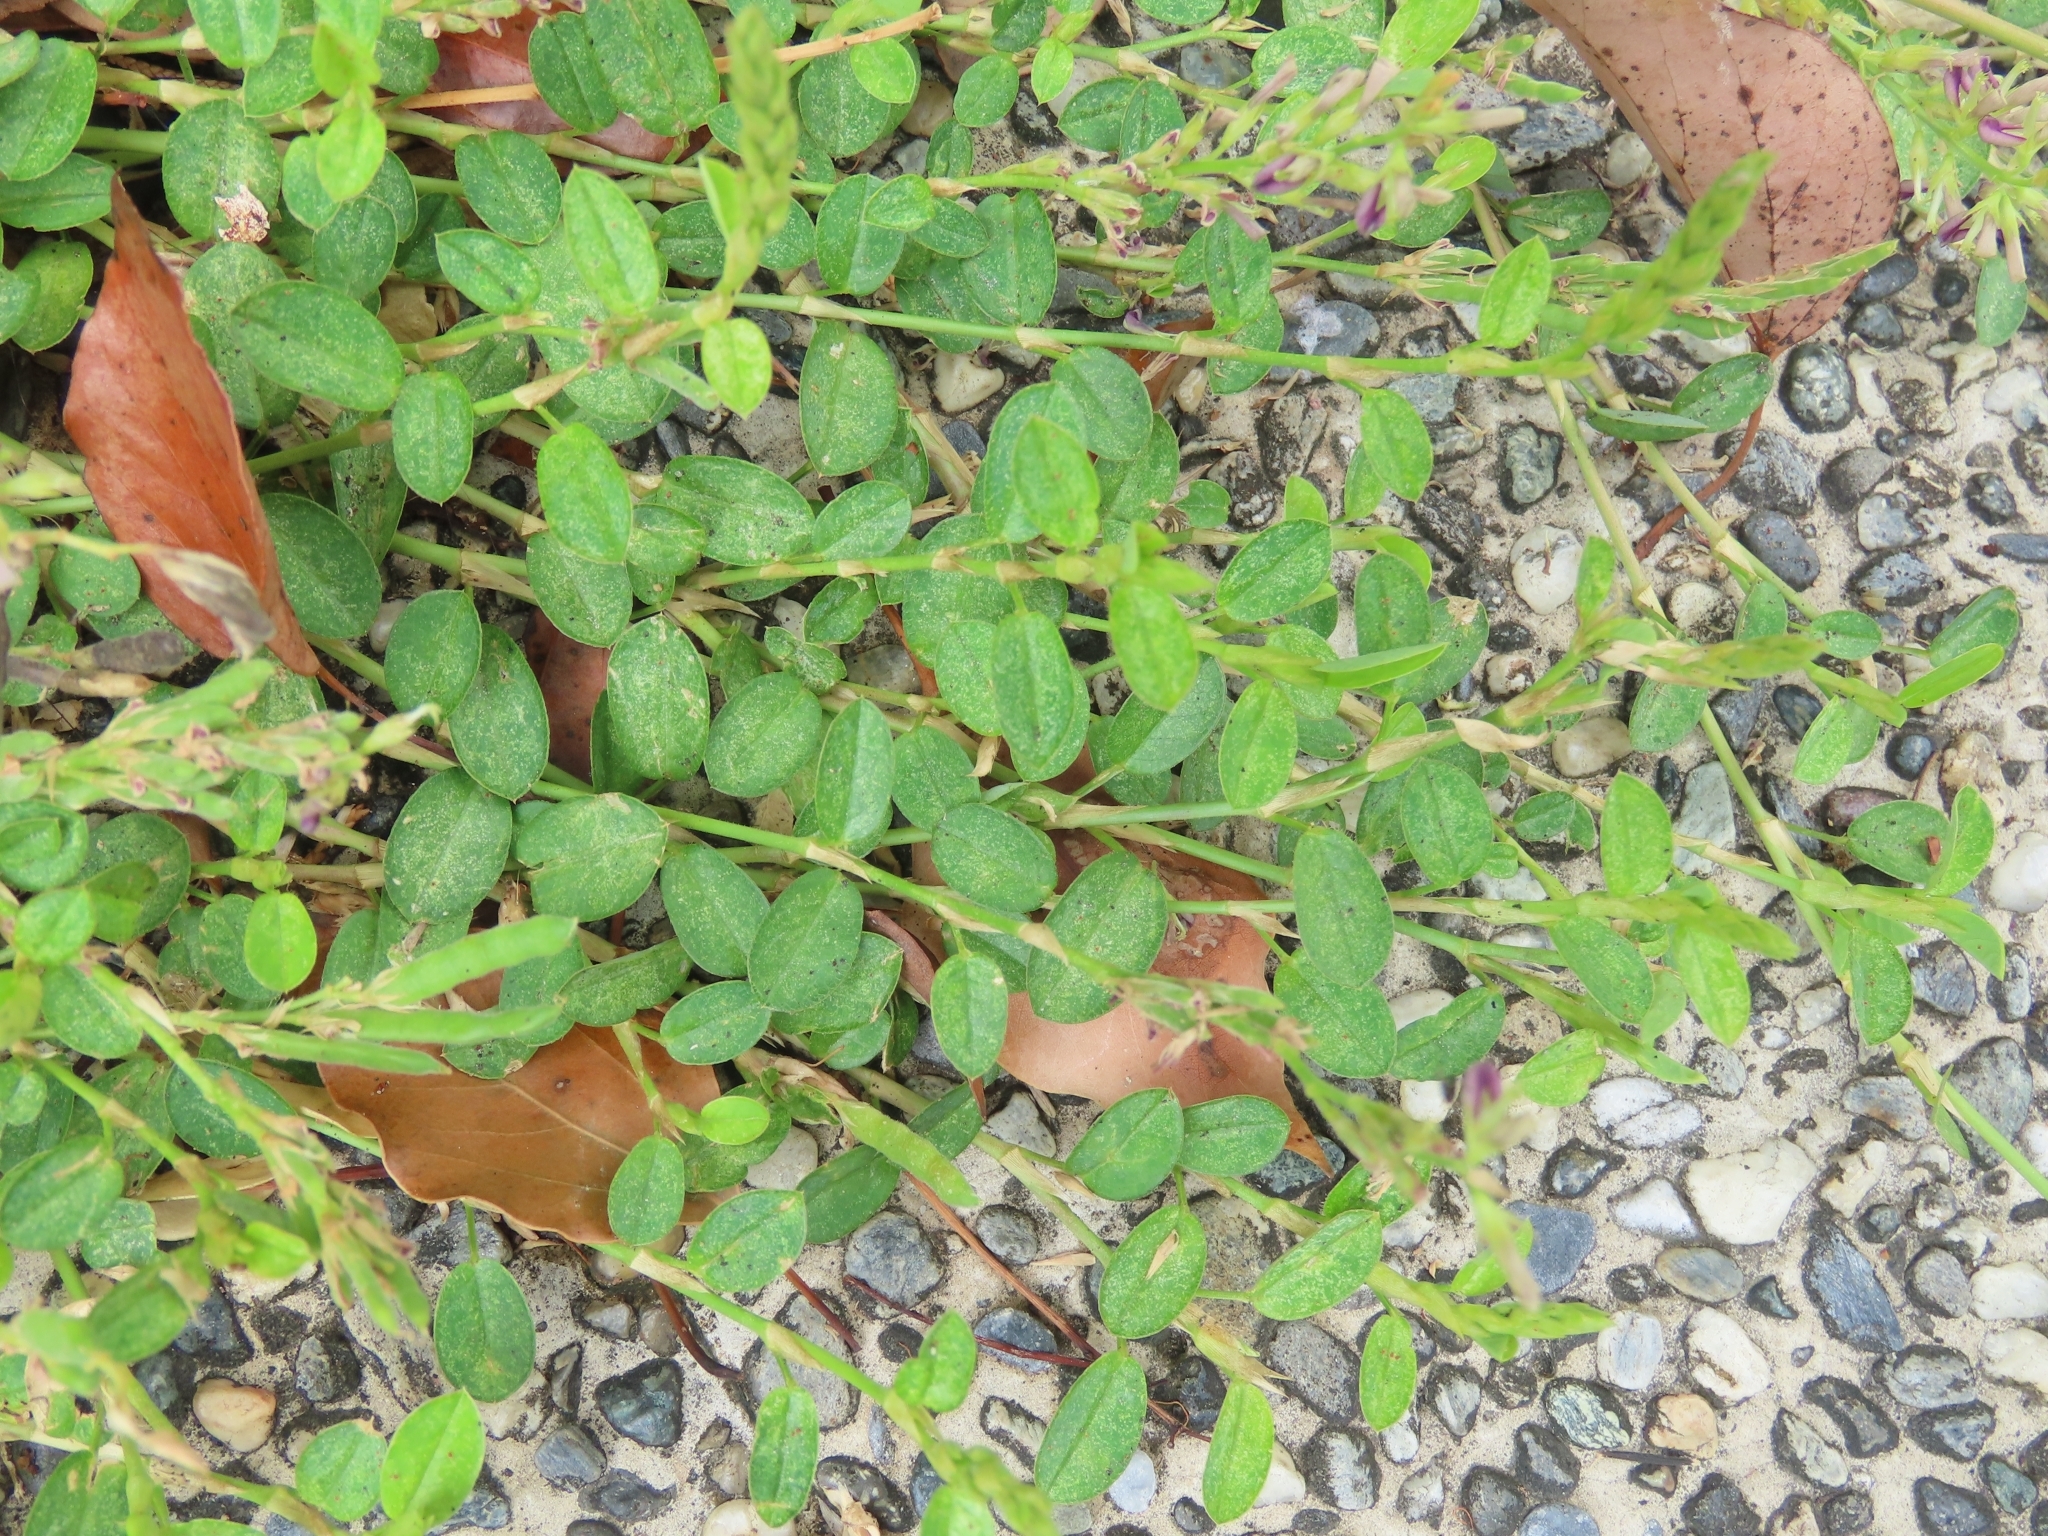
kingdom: Plantae
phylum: Tracheophyta
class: Magnoliopsida
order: Fabales
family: Fabaceae
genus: Alysicarpus
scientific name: Alysicarpus vaginalis
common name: White moneywort
